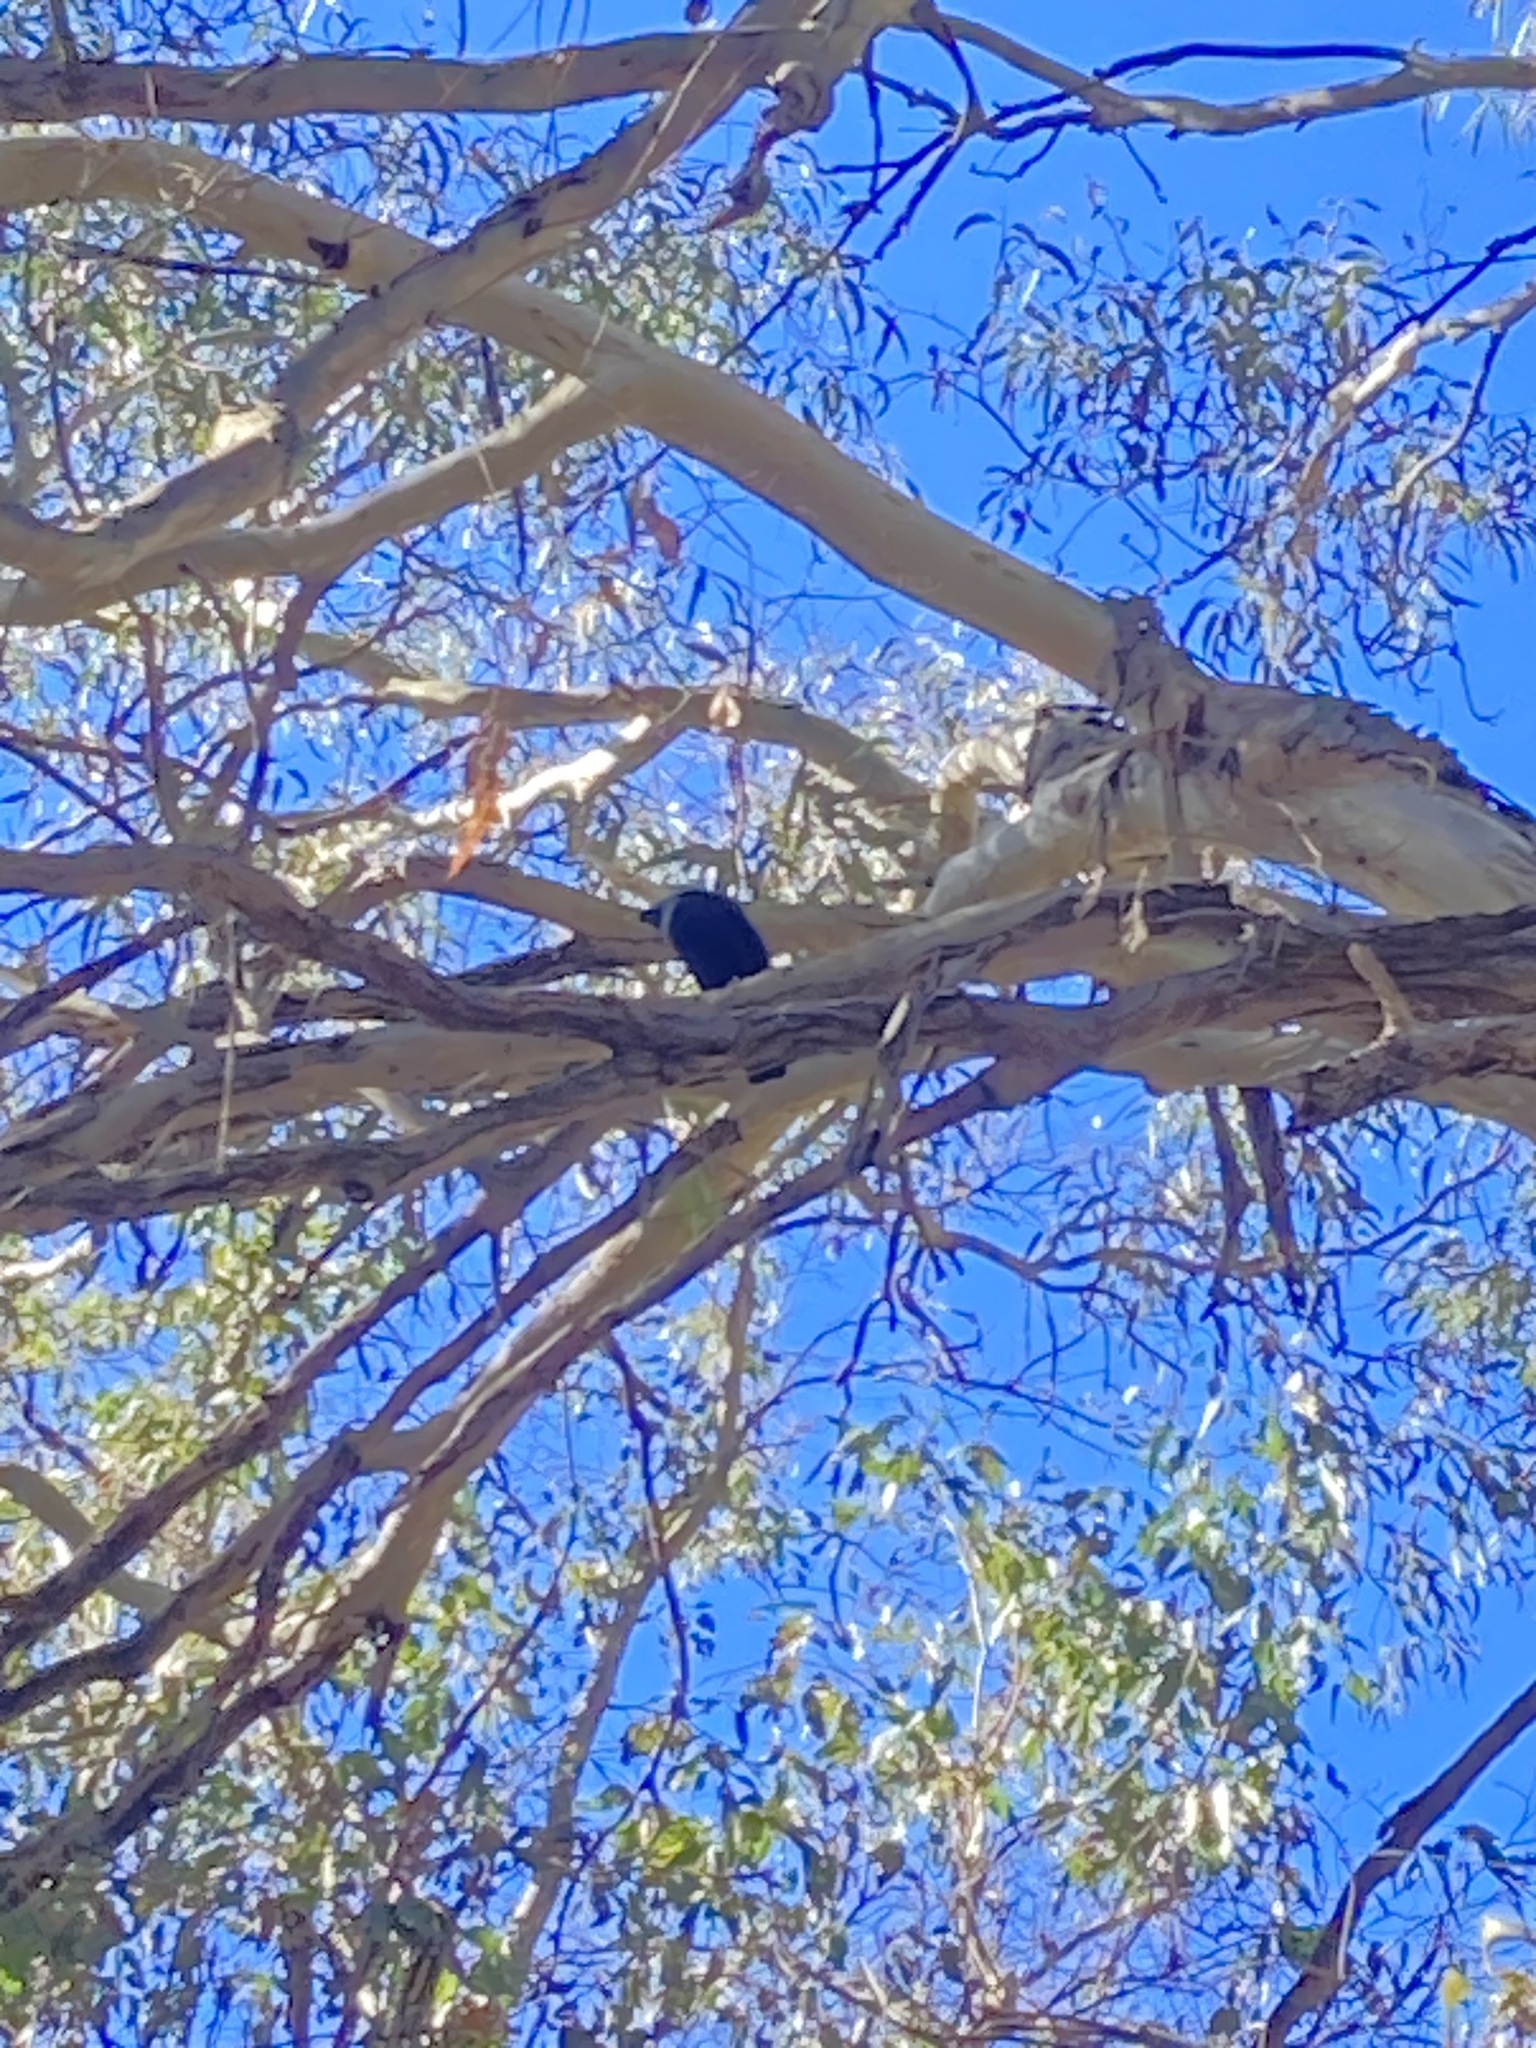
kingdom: Animalia
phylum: Chordata
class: Aves
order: Passeriformes
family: Ptilonorhynchidae
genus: Ptilonorhynchus
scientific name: Ptilonorhynchus violaceus
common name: Satin bowerbird
